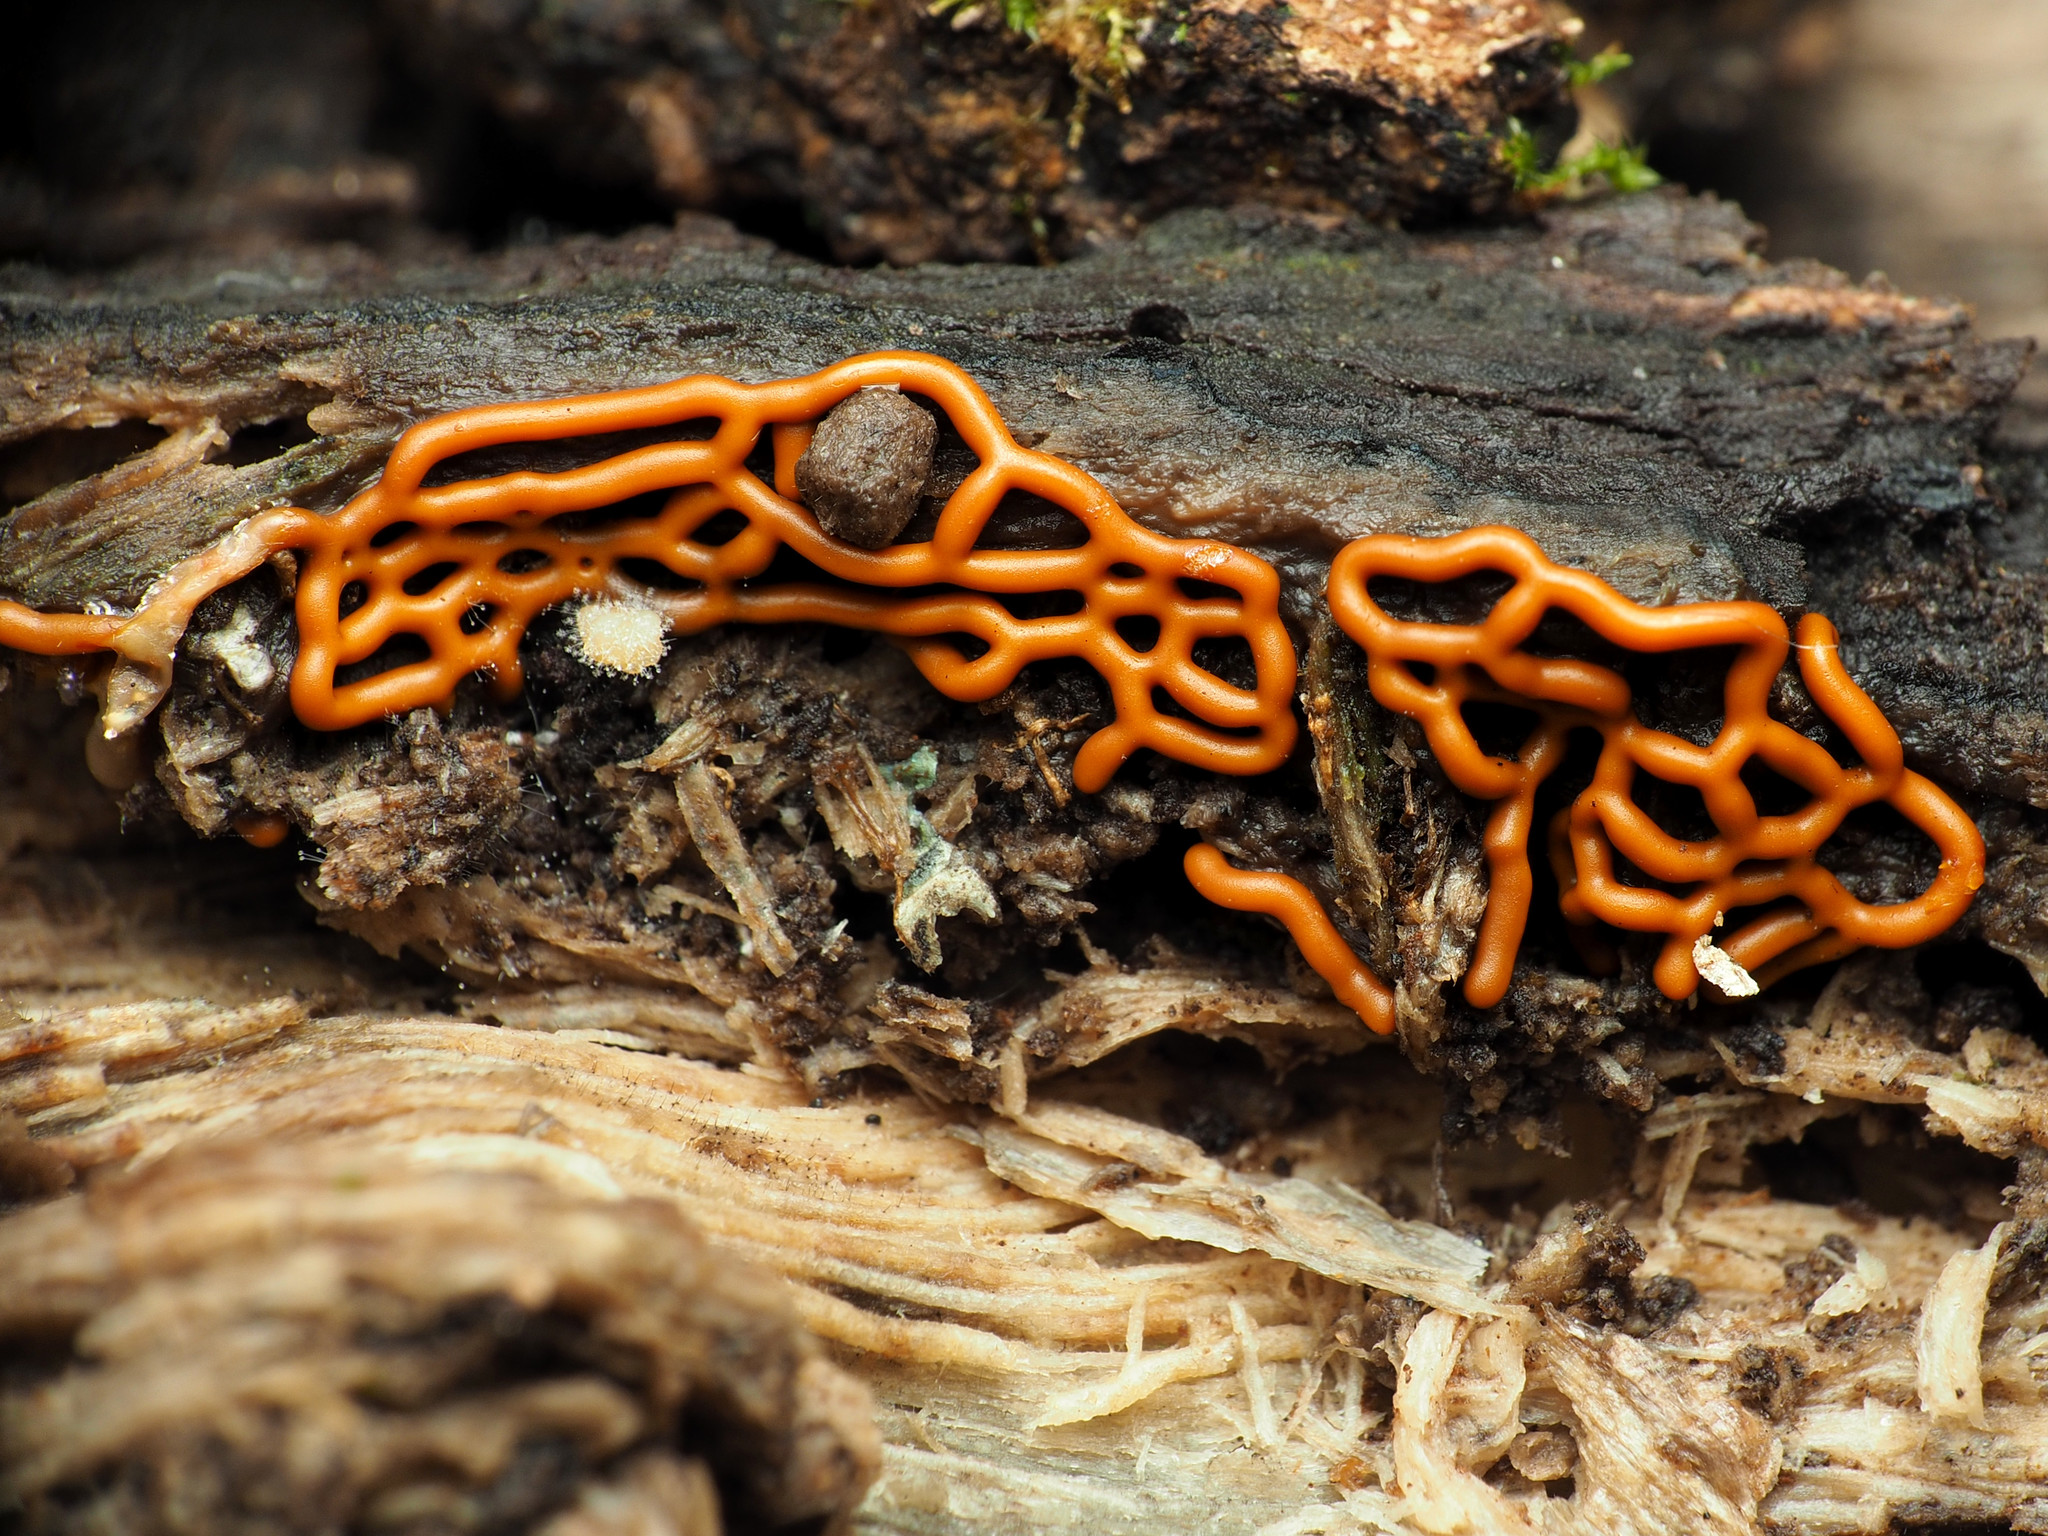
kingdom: Protozoa
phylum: Mycetozoa
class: Myxomycetes
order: Trichiales
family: Arcyriaceae
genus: Hemitrichia
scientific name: Hemitrichia serpula
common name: Pretzel slime mold
